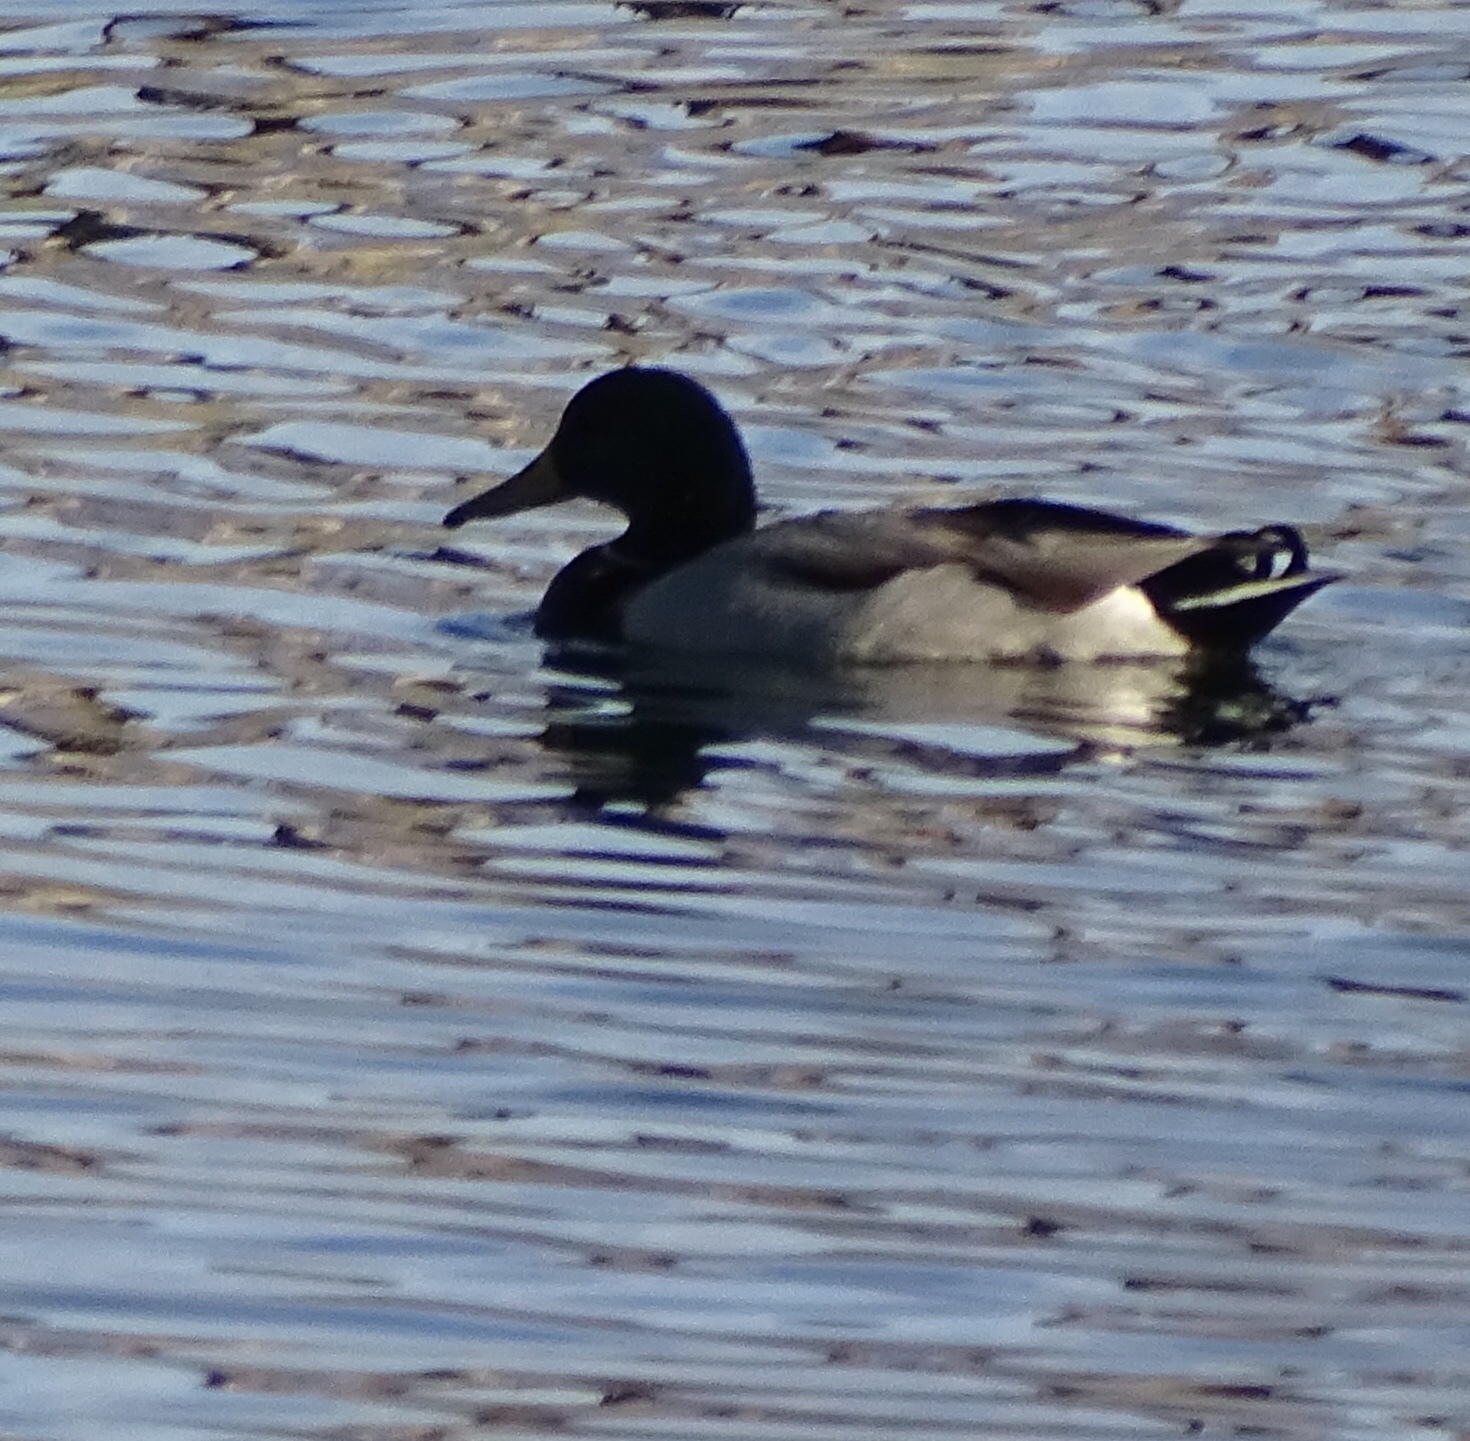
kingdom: Animalia
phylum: Chordata
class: Aves
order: Anseriformes
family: Anatidae
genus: Anas
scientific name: Anas platyrhynchos
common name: Mallard
